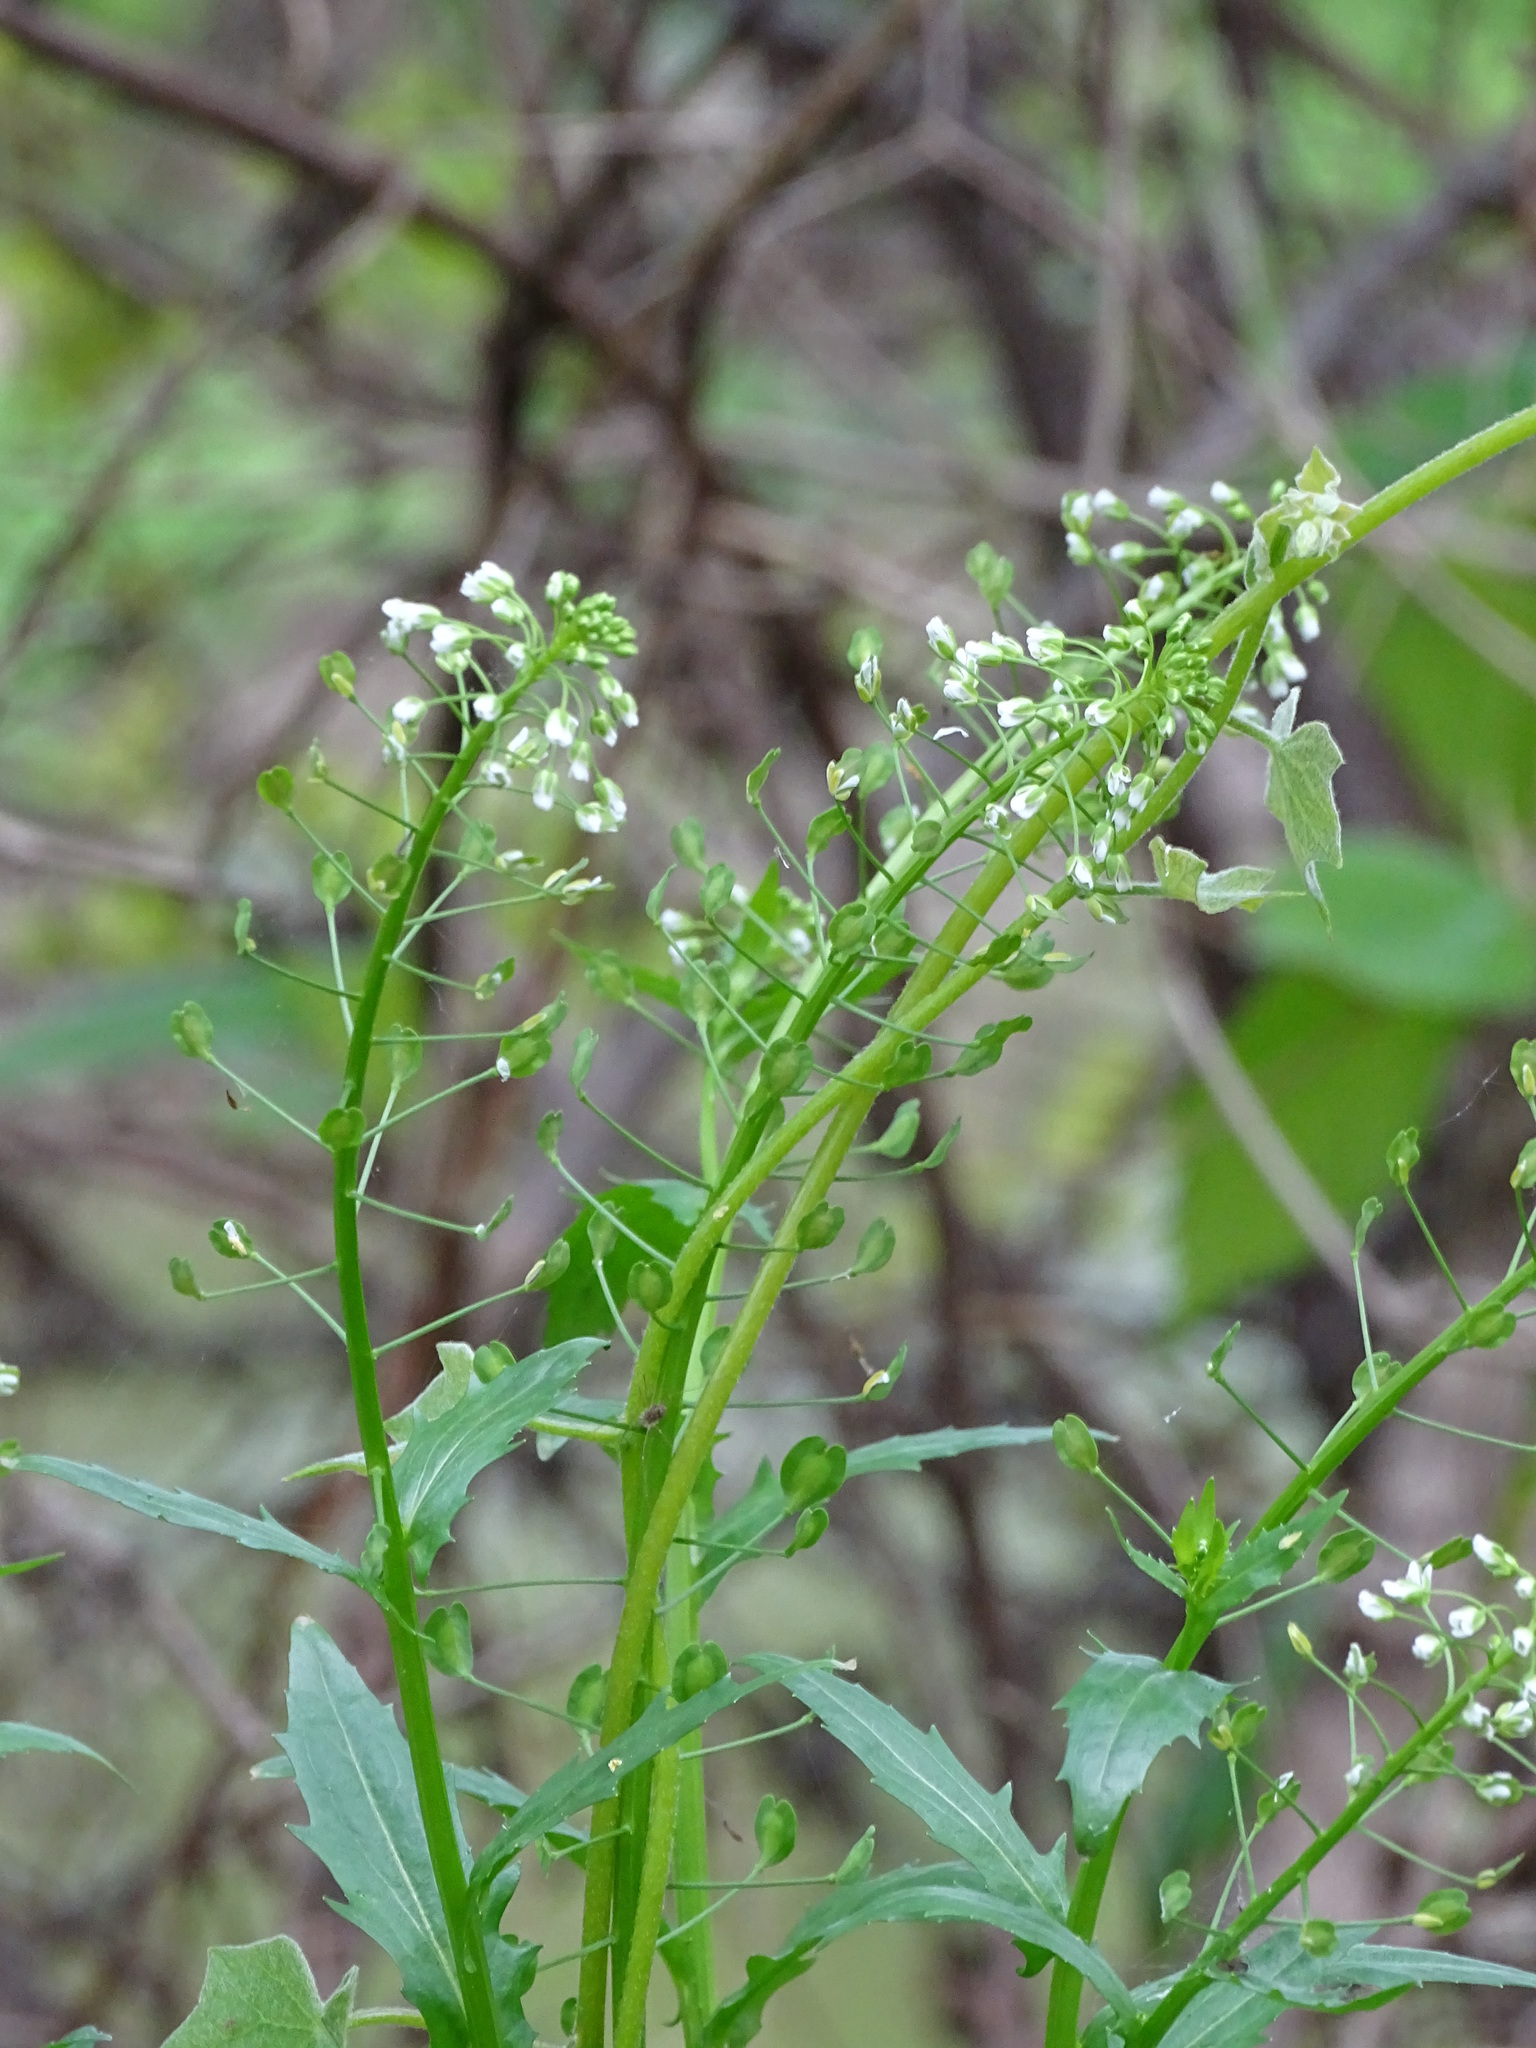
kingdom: Plantae
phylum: Tracheophyta
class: Magnoliopsida
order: Brassicales
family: Brassicaceae
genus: Thlaspi
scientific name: Thlaspi arvense
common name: Field pennycress
